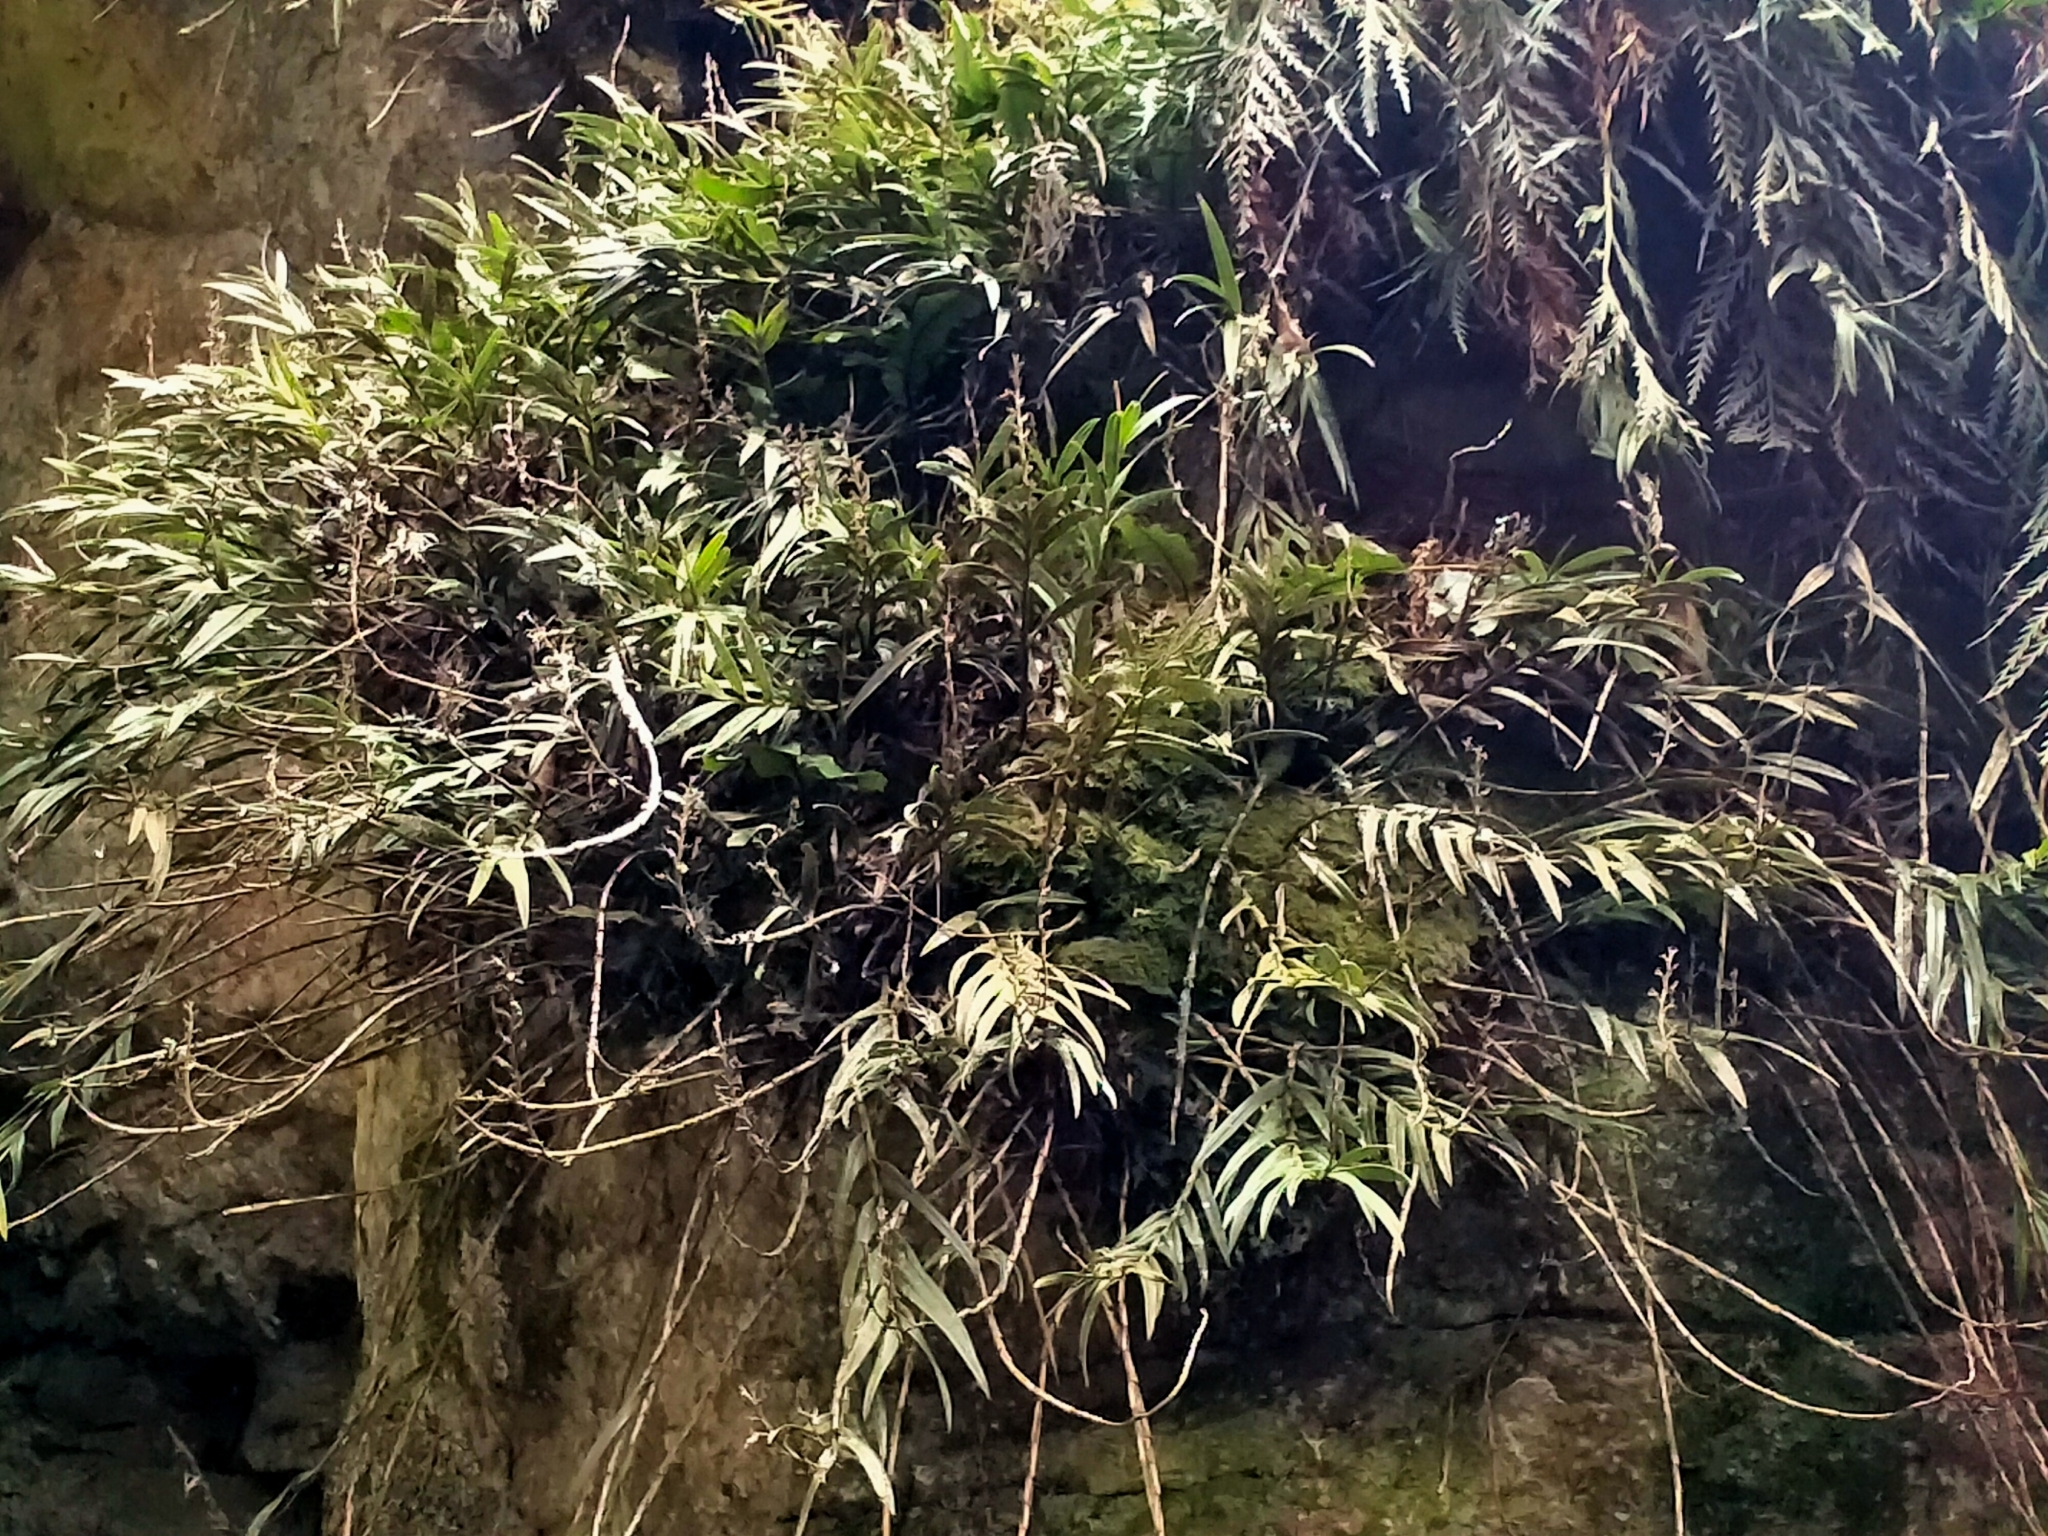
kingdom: Plantae
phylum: Tracheophyta
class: Liliopsida
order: Asparagales
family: Orchidaceae
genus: Earina
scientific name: Earina autumnalis
